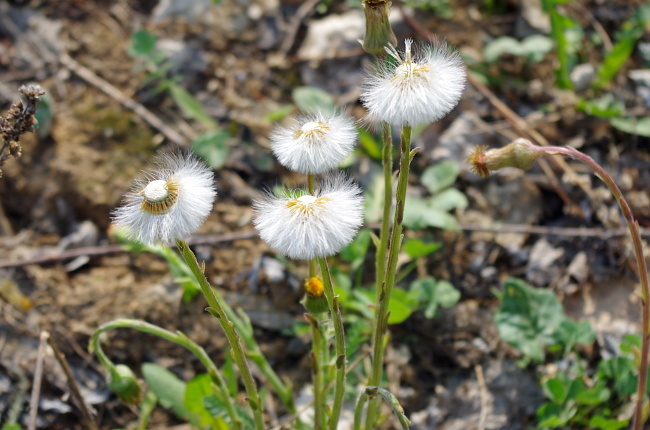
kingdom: Plantae
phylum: Tracheophyta
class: Magnoliopsida
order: Asterales
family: Asteraceae
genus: Tussilago
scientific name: Tussilago farfara
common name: Coltsfoot
